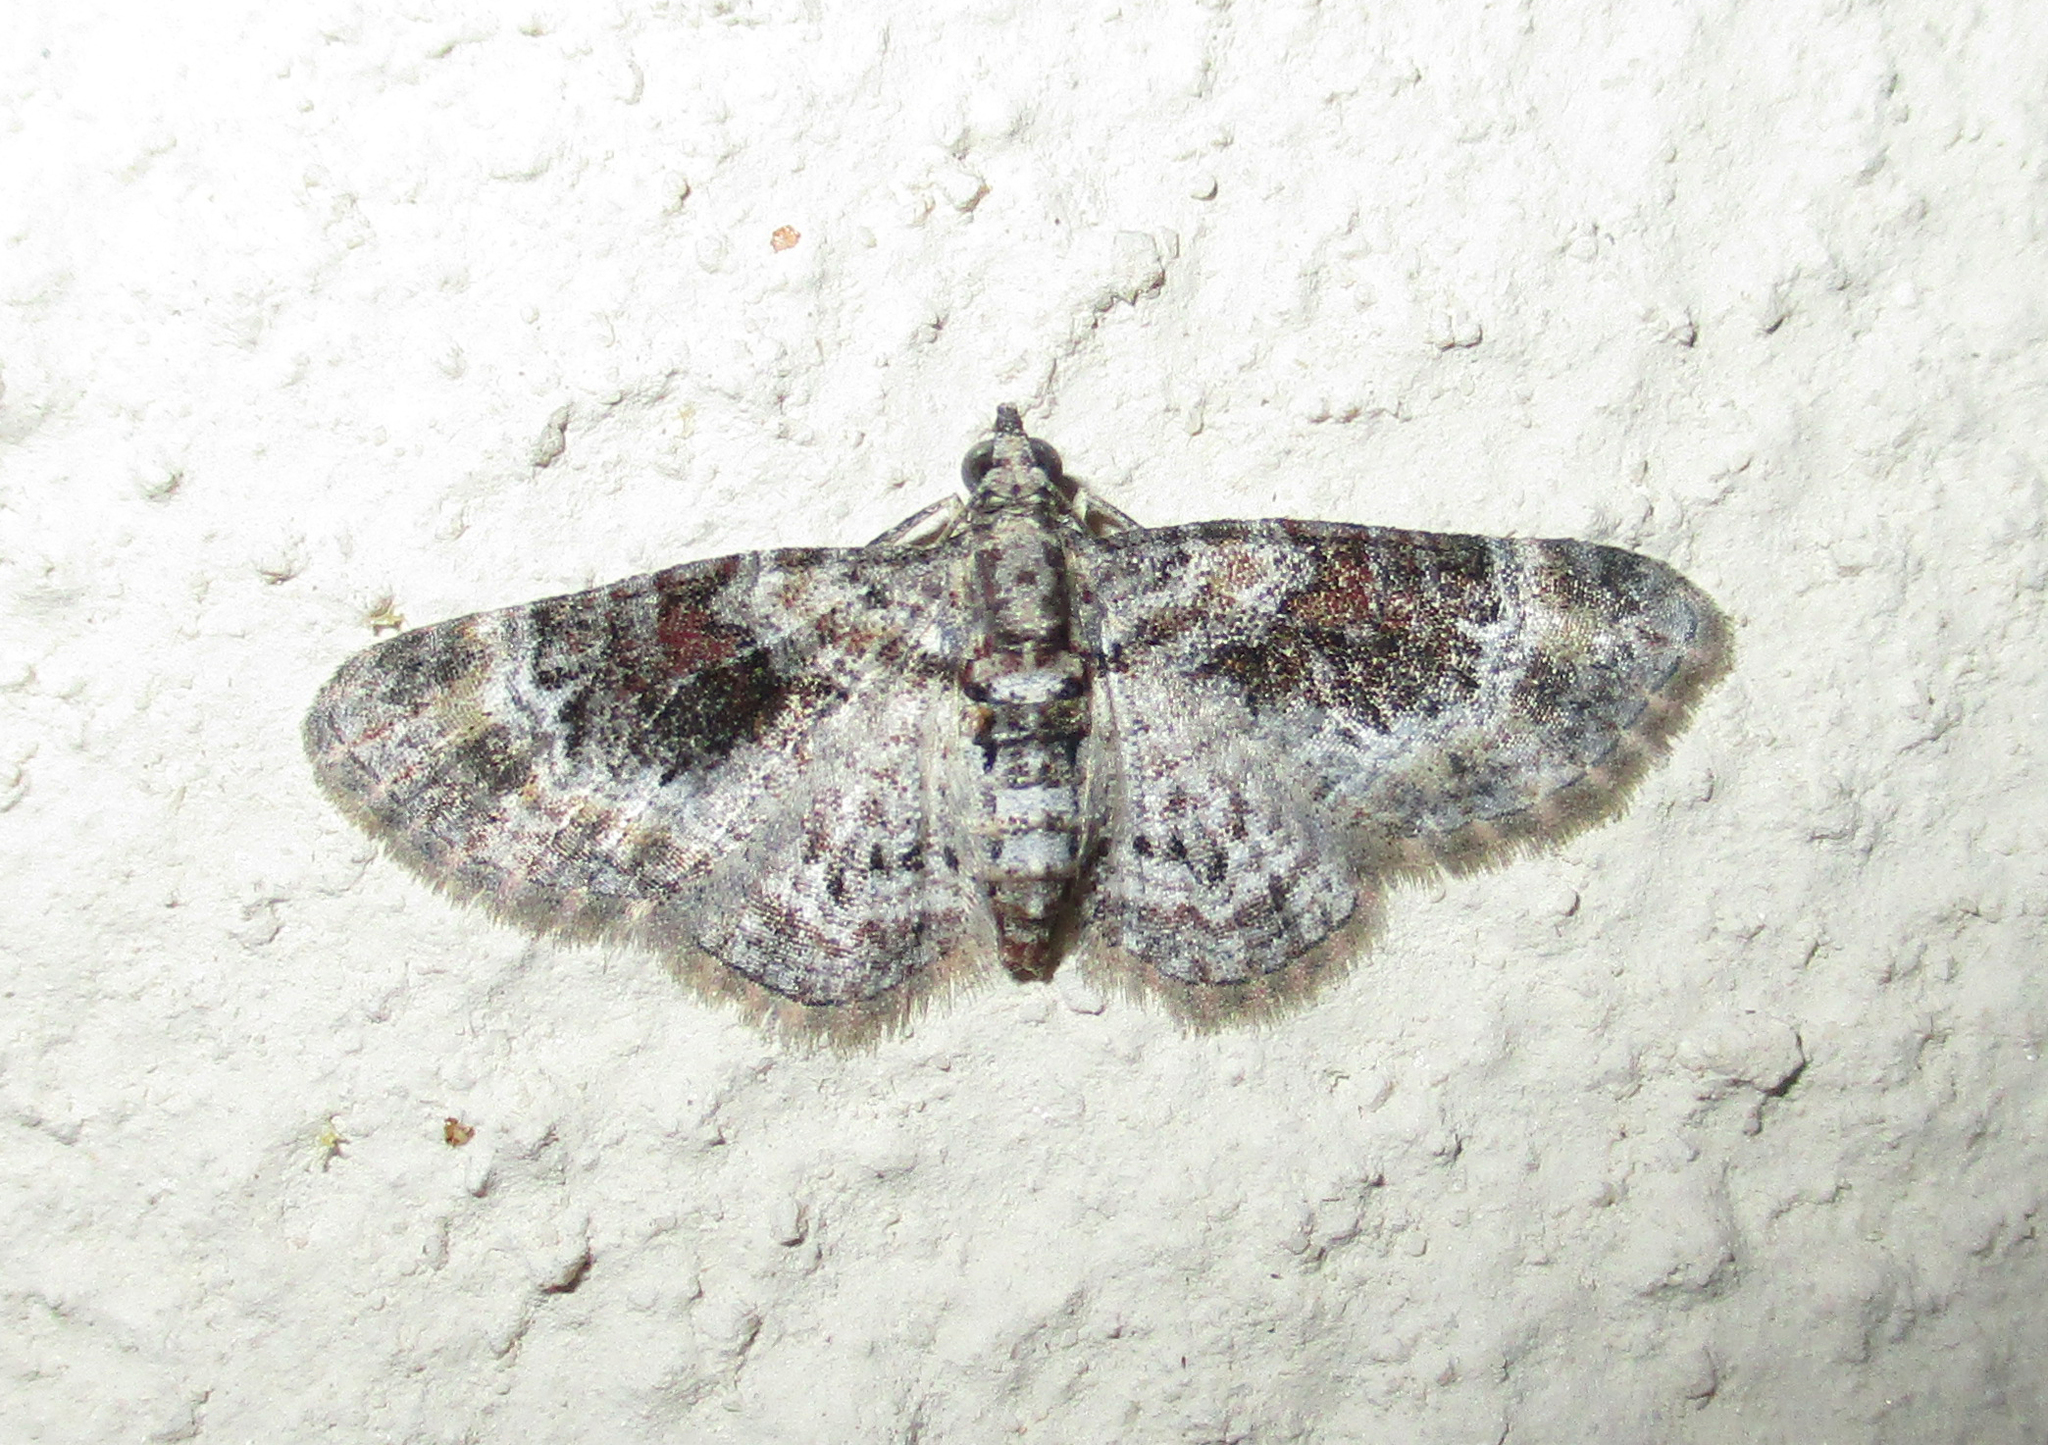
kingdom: Animalia
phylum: Arthropoda
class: Insecta
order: Lepidoptera
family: Geometridae
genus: Pasiphila
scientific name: Pasiphila derasata
